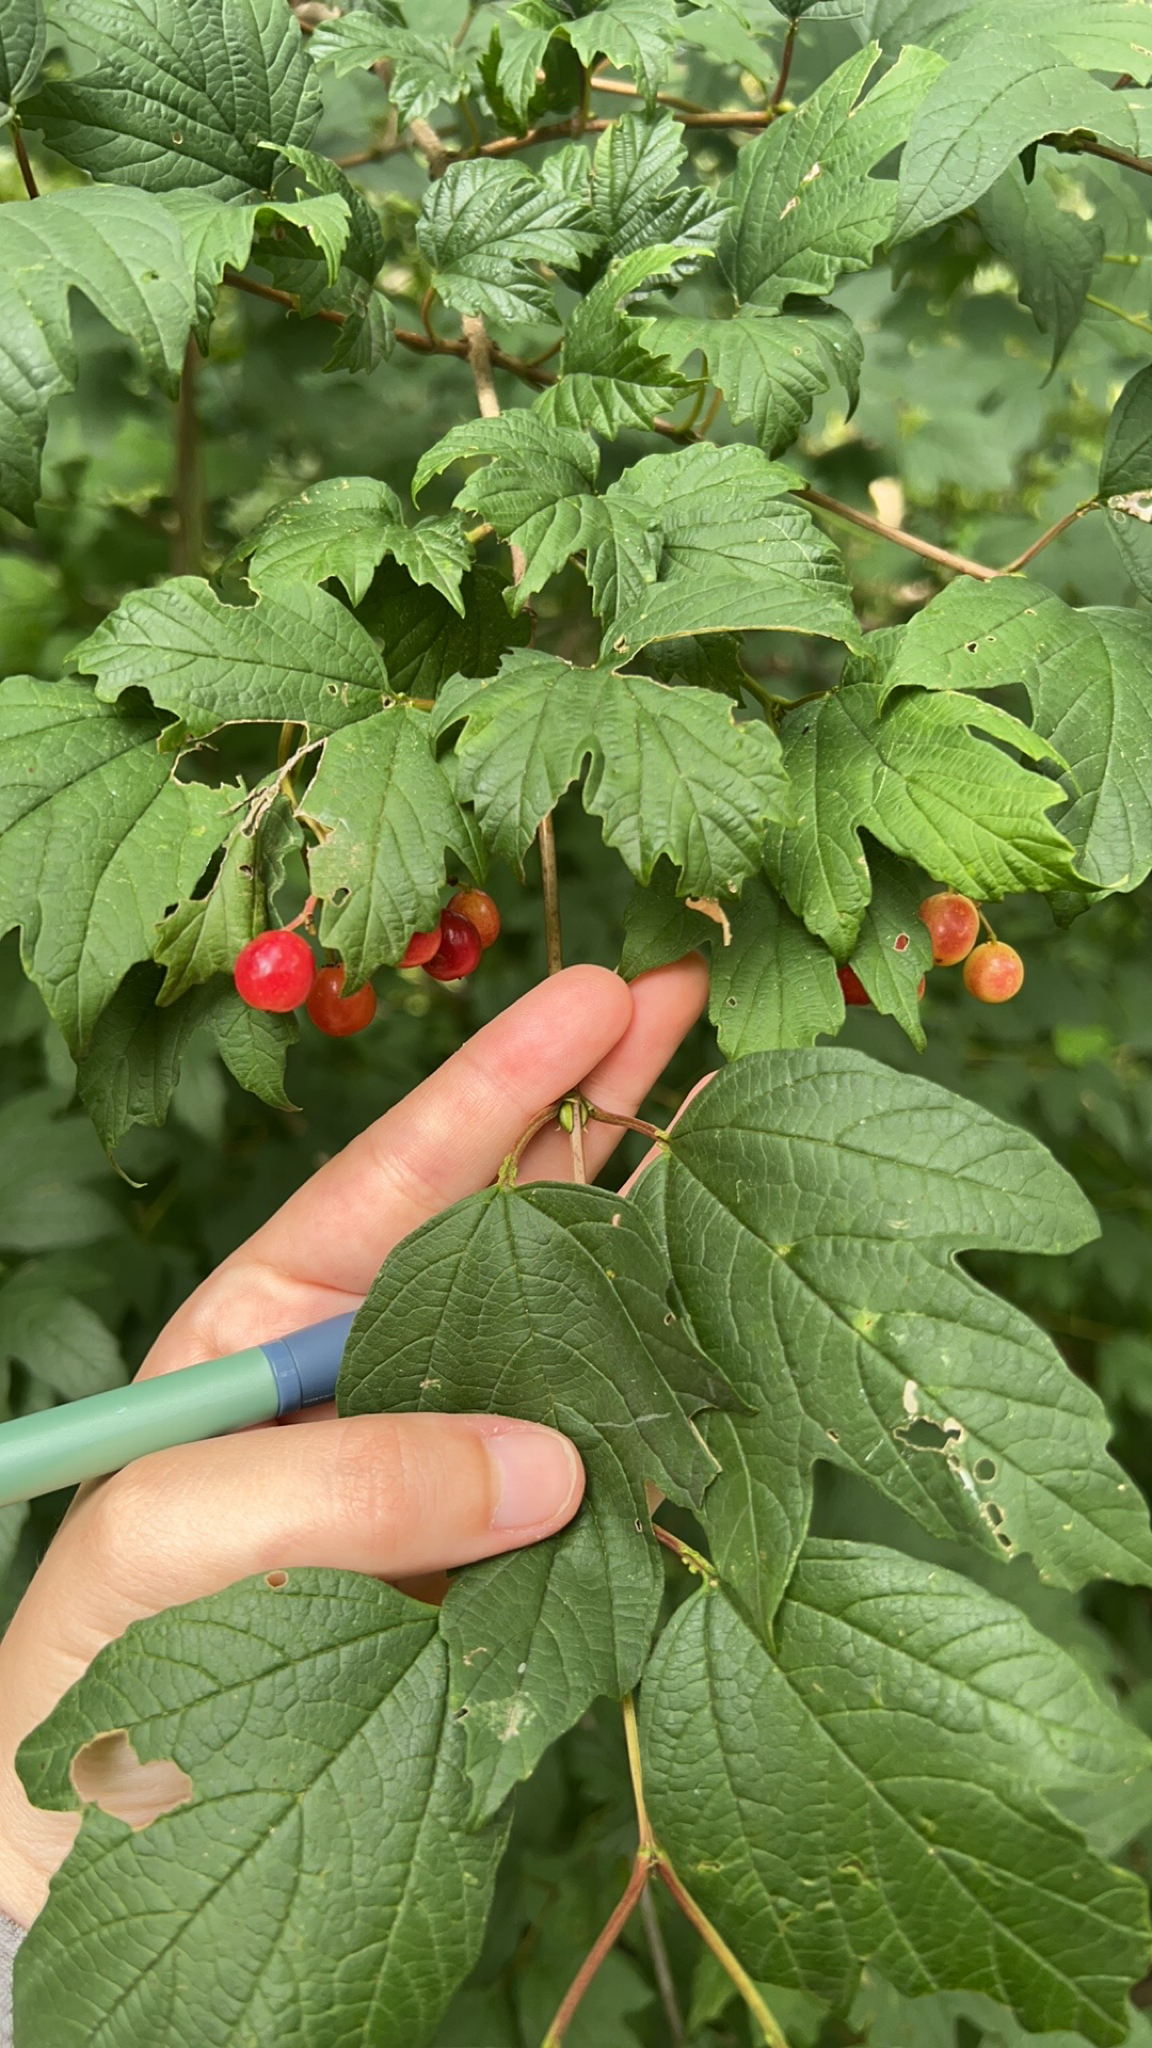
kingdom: Plantae
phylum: Tracheophyta
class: Magnoliopsida
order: Dipsacales
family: Viburnaceae
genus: Viburnum
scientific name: Viburnum opulus
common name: Guelder-rose
